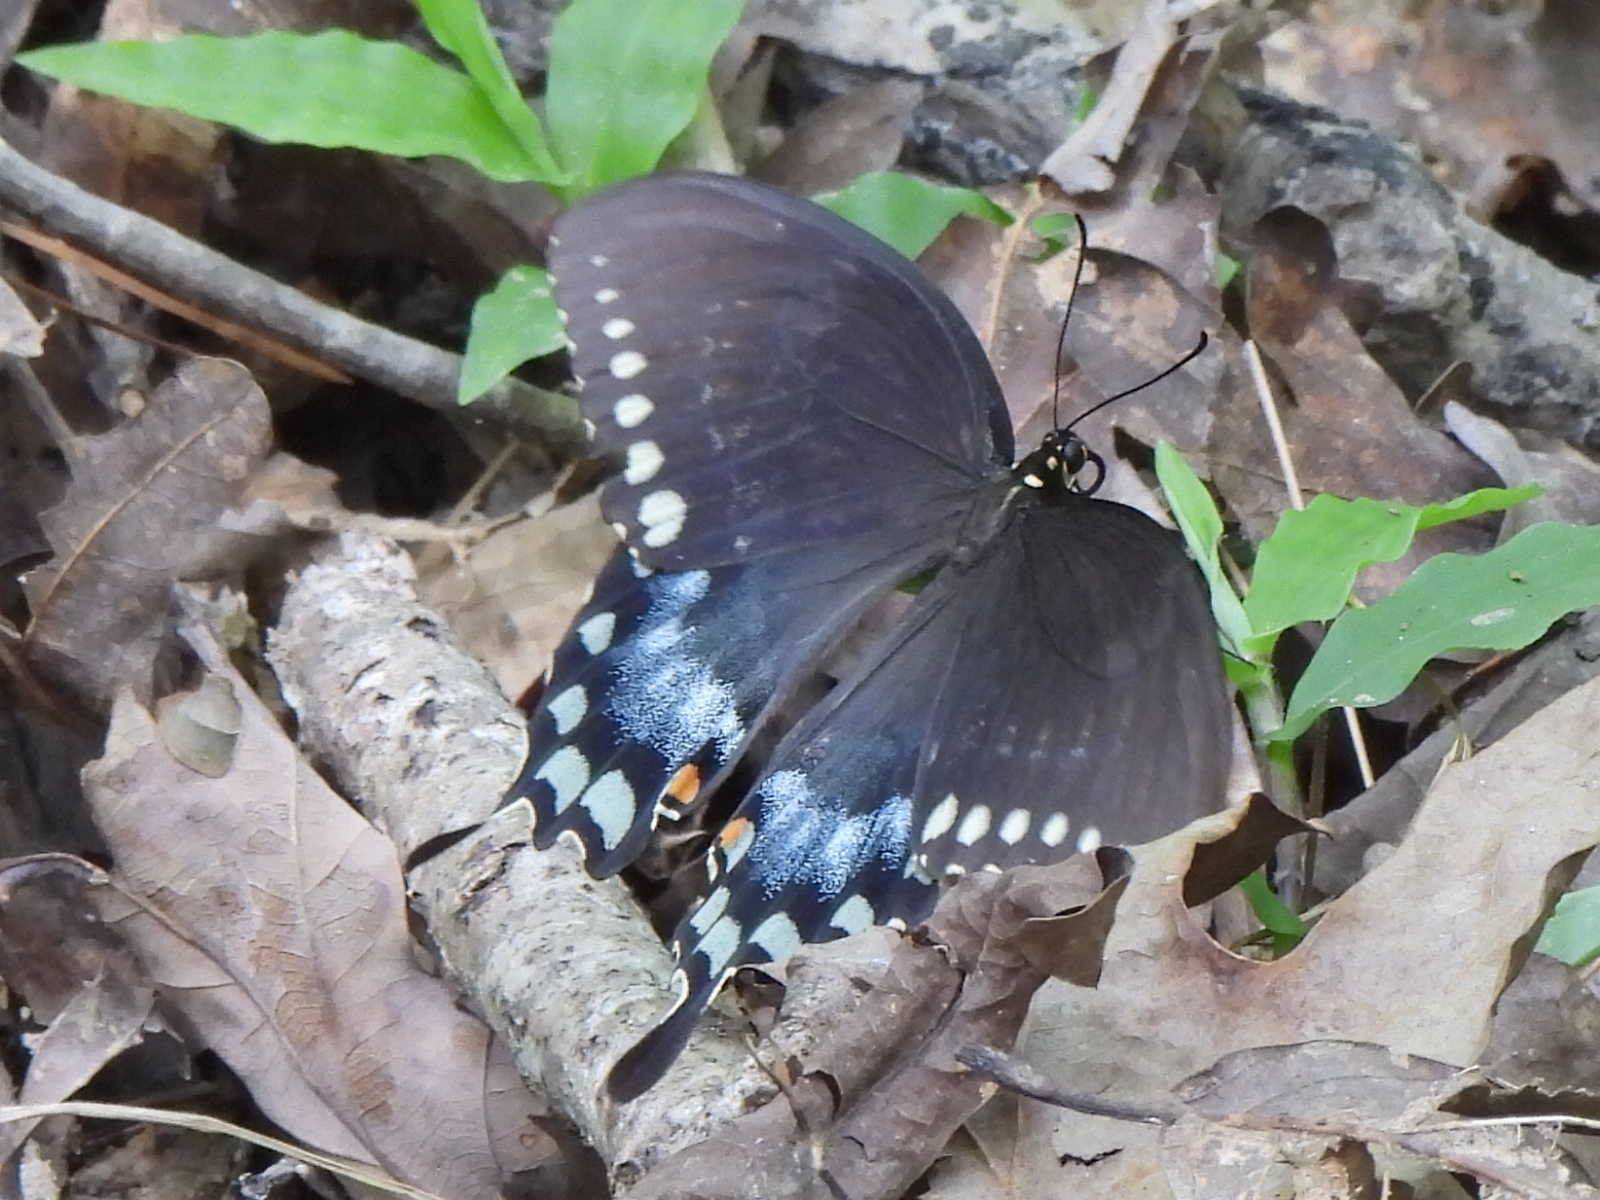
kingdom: Animalia
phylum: Arthropoda
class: Insecta
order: Lepidoptera
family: Papilionidae
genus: Papilio
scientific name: Papilio troilus
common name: Spicebush swallowtail
